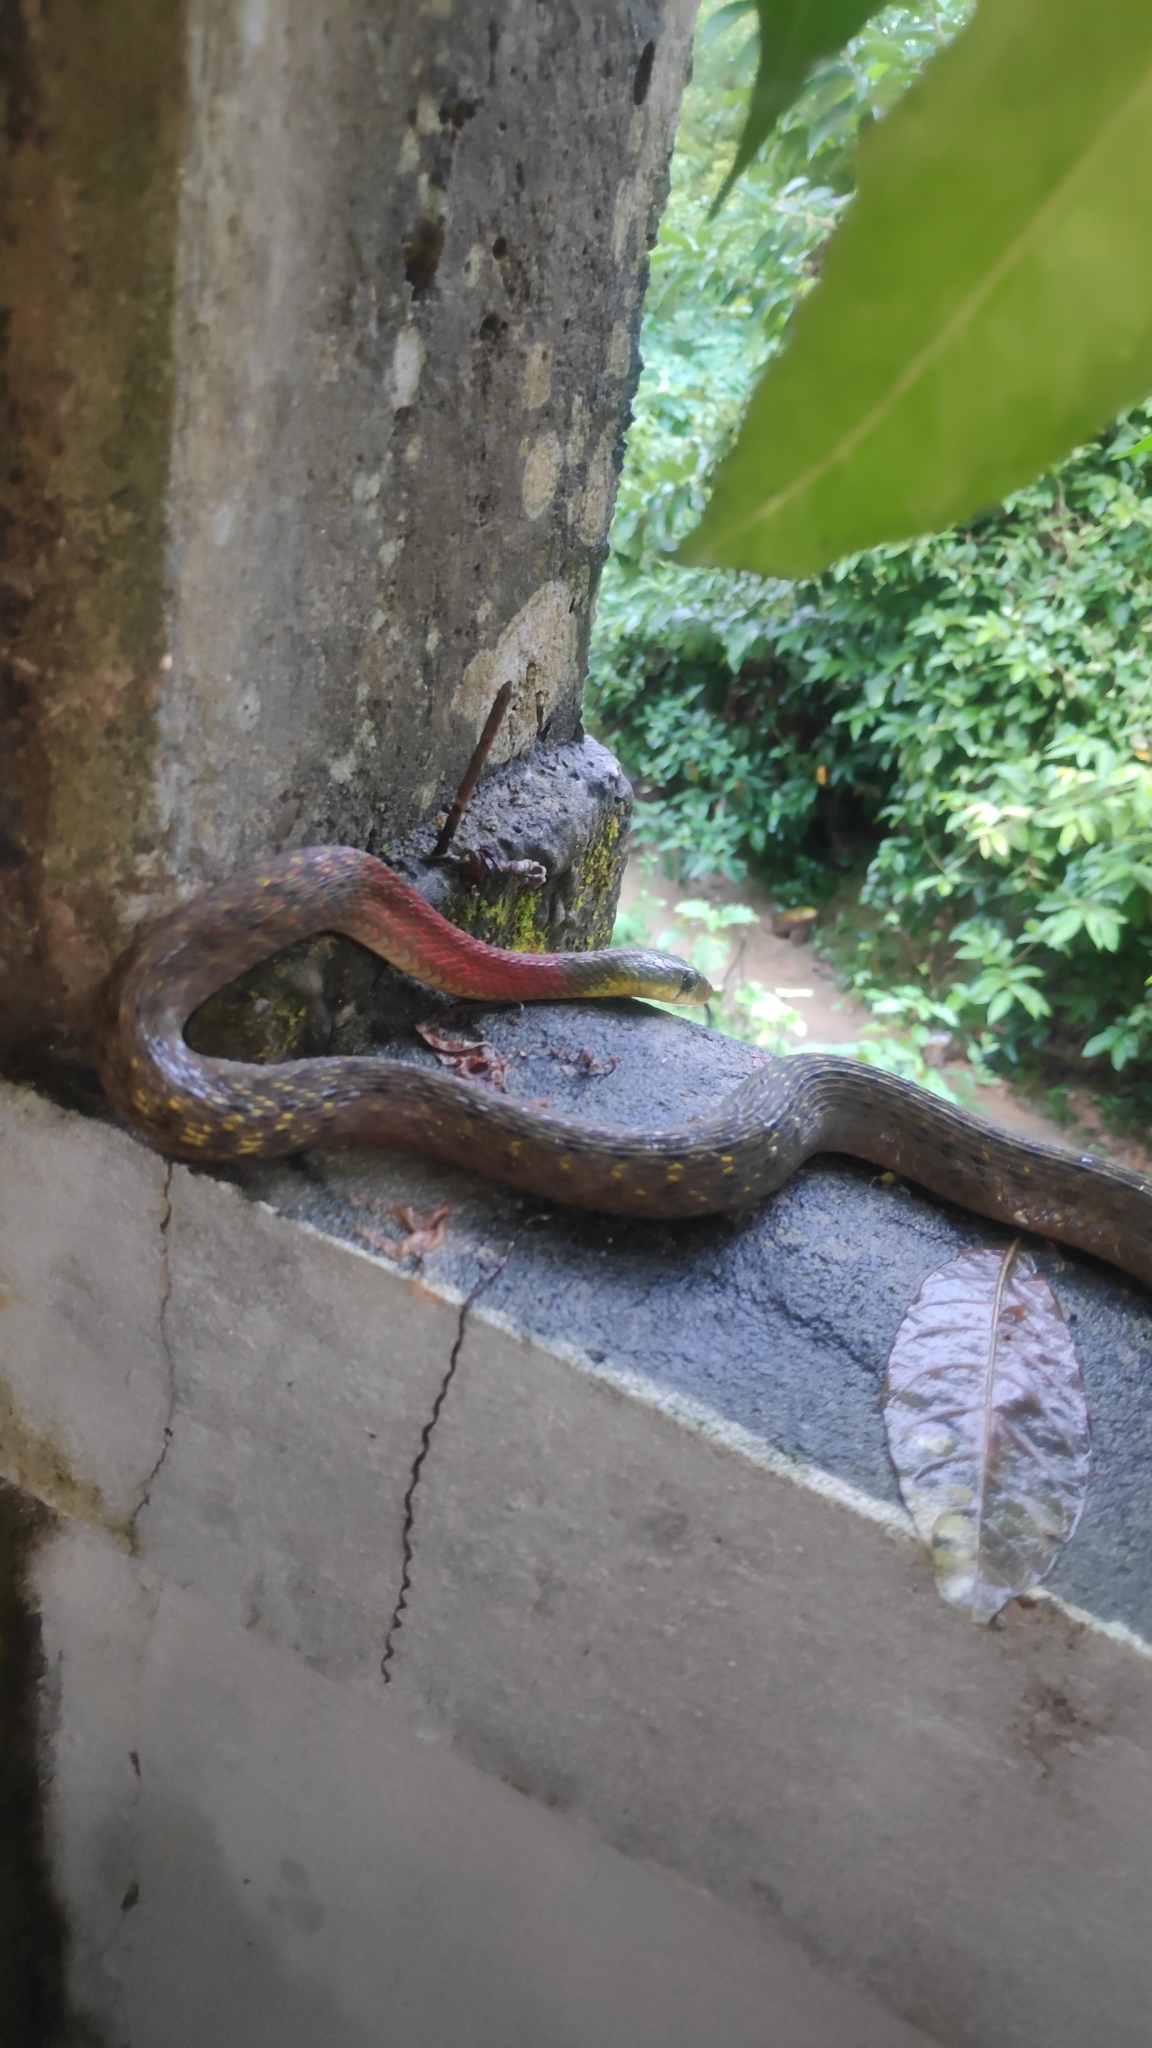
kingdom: Animalia
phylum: Chordata
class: Squamata
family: Colubridae
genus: Rhabdophis
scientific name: Rhabdophis helleri
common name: Heller’s red-necked keelback
